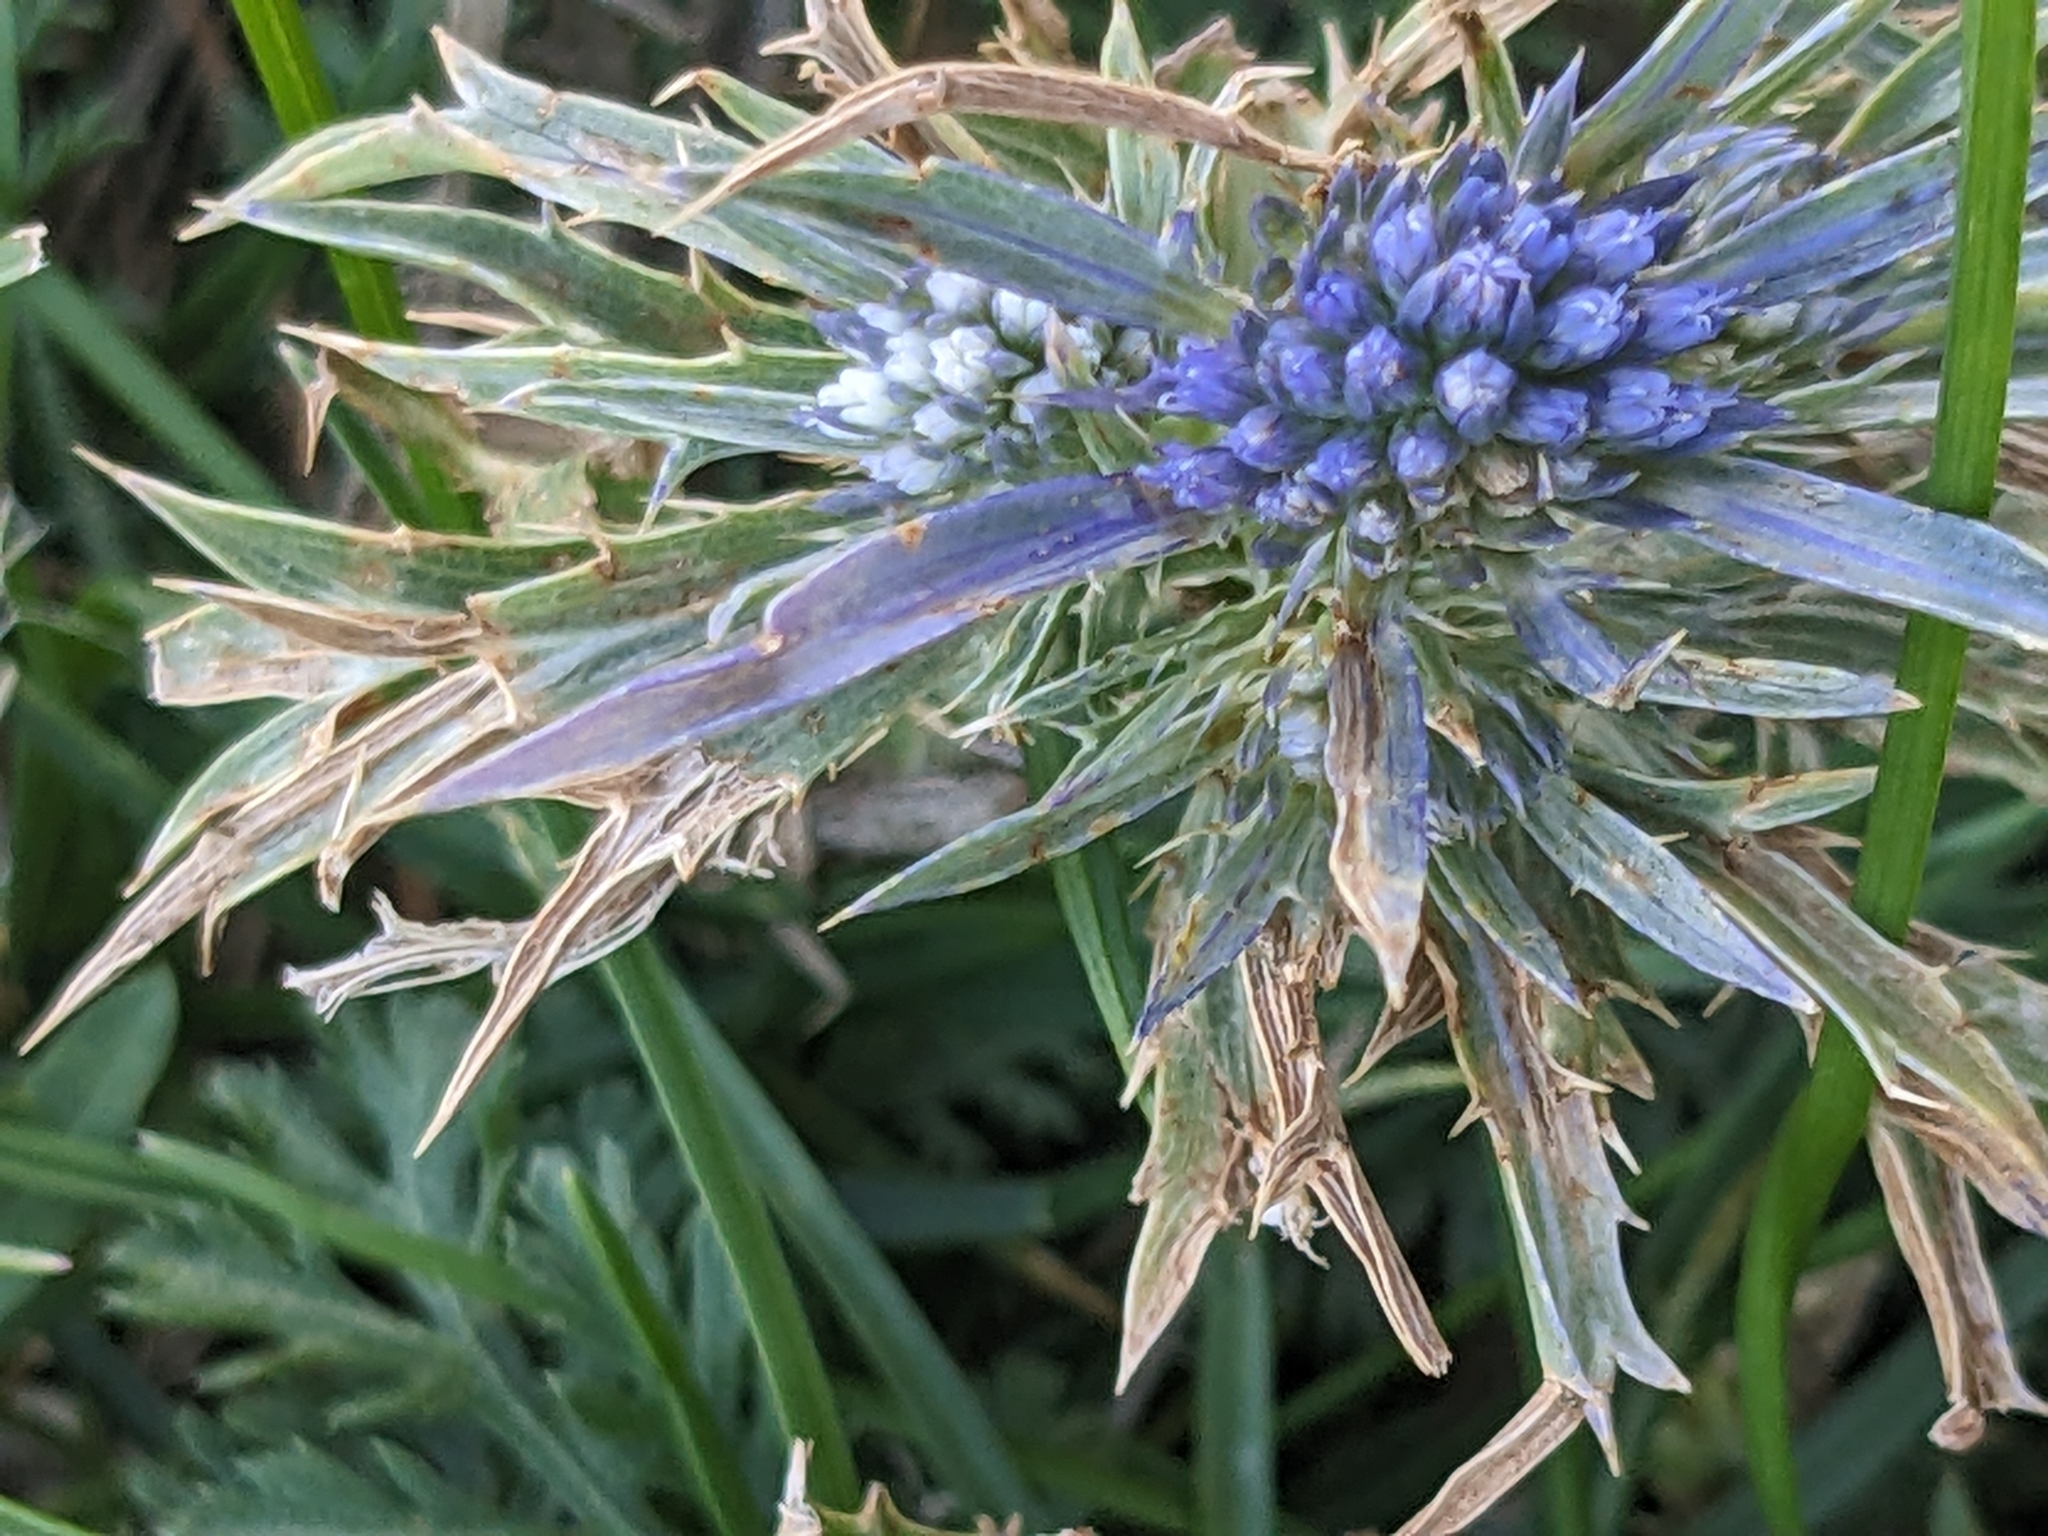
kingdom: Plantae
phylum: Tracheophyta
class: Magnoliopsida
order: Apiales
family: Apiaceae
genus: Eryngium
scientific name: Eryngium amethystinum
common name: Amethyst eryngo
